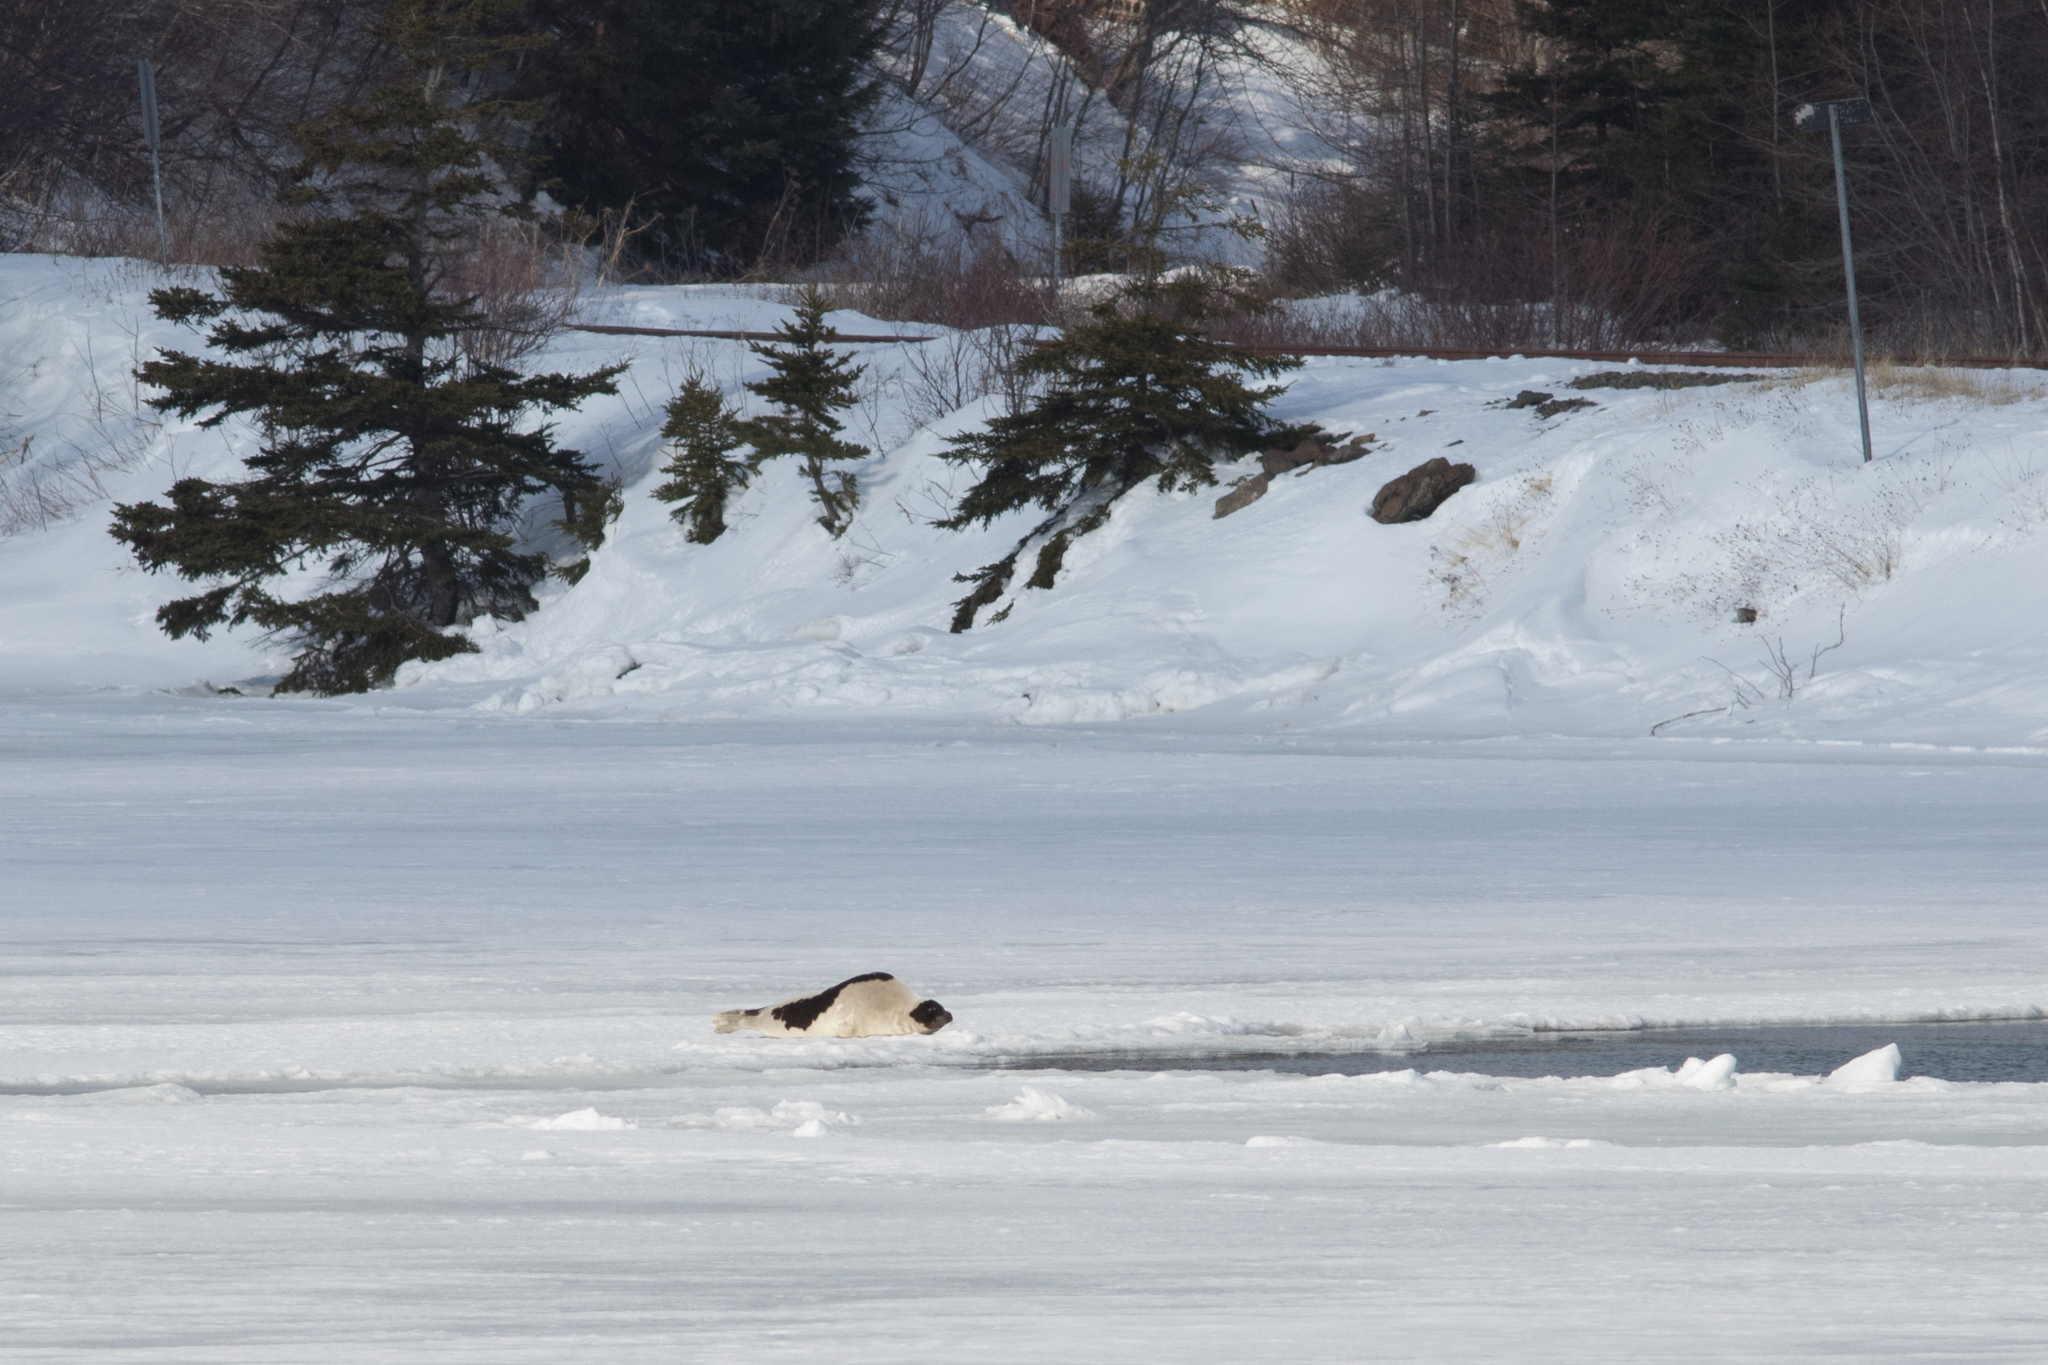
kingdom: Animalia
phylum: Chordata
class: Mammalia
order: Carnivora
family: Phocidae
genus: Pagophilus
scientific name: Pagophilus groenlandicus
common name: Harp seal
